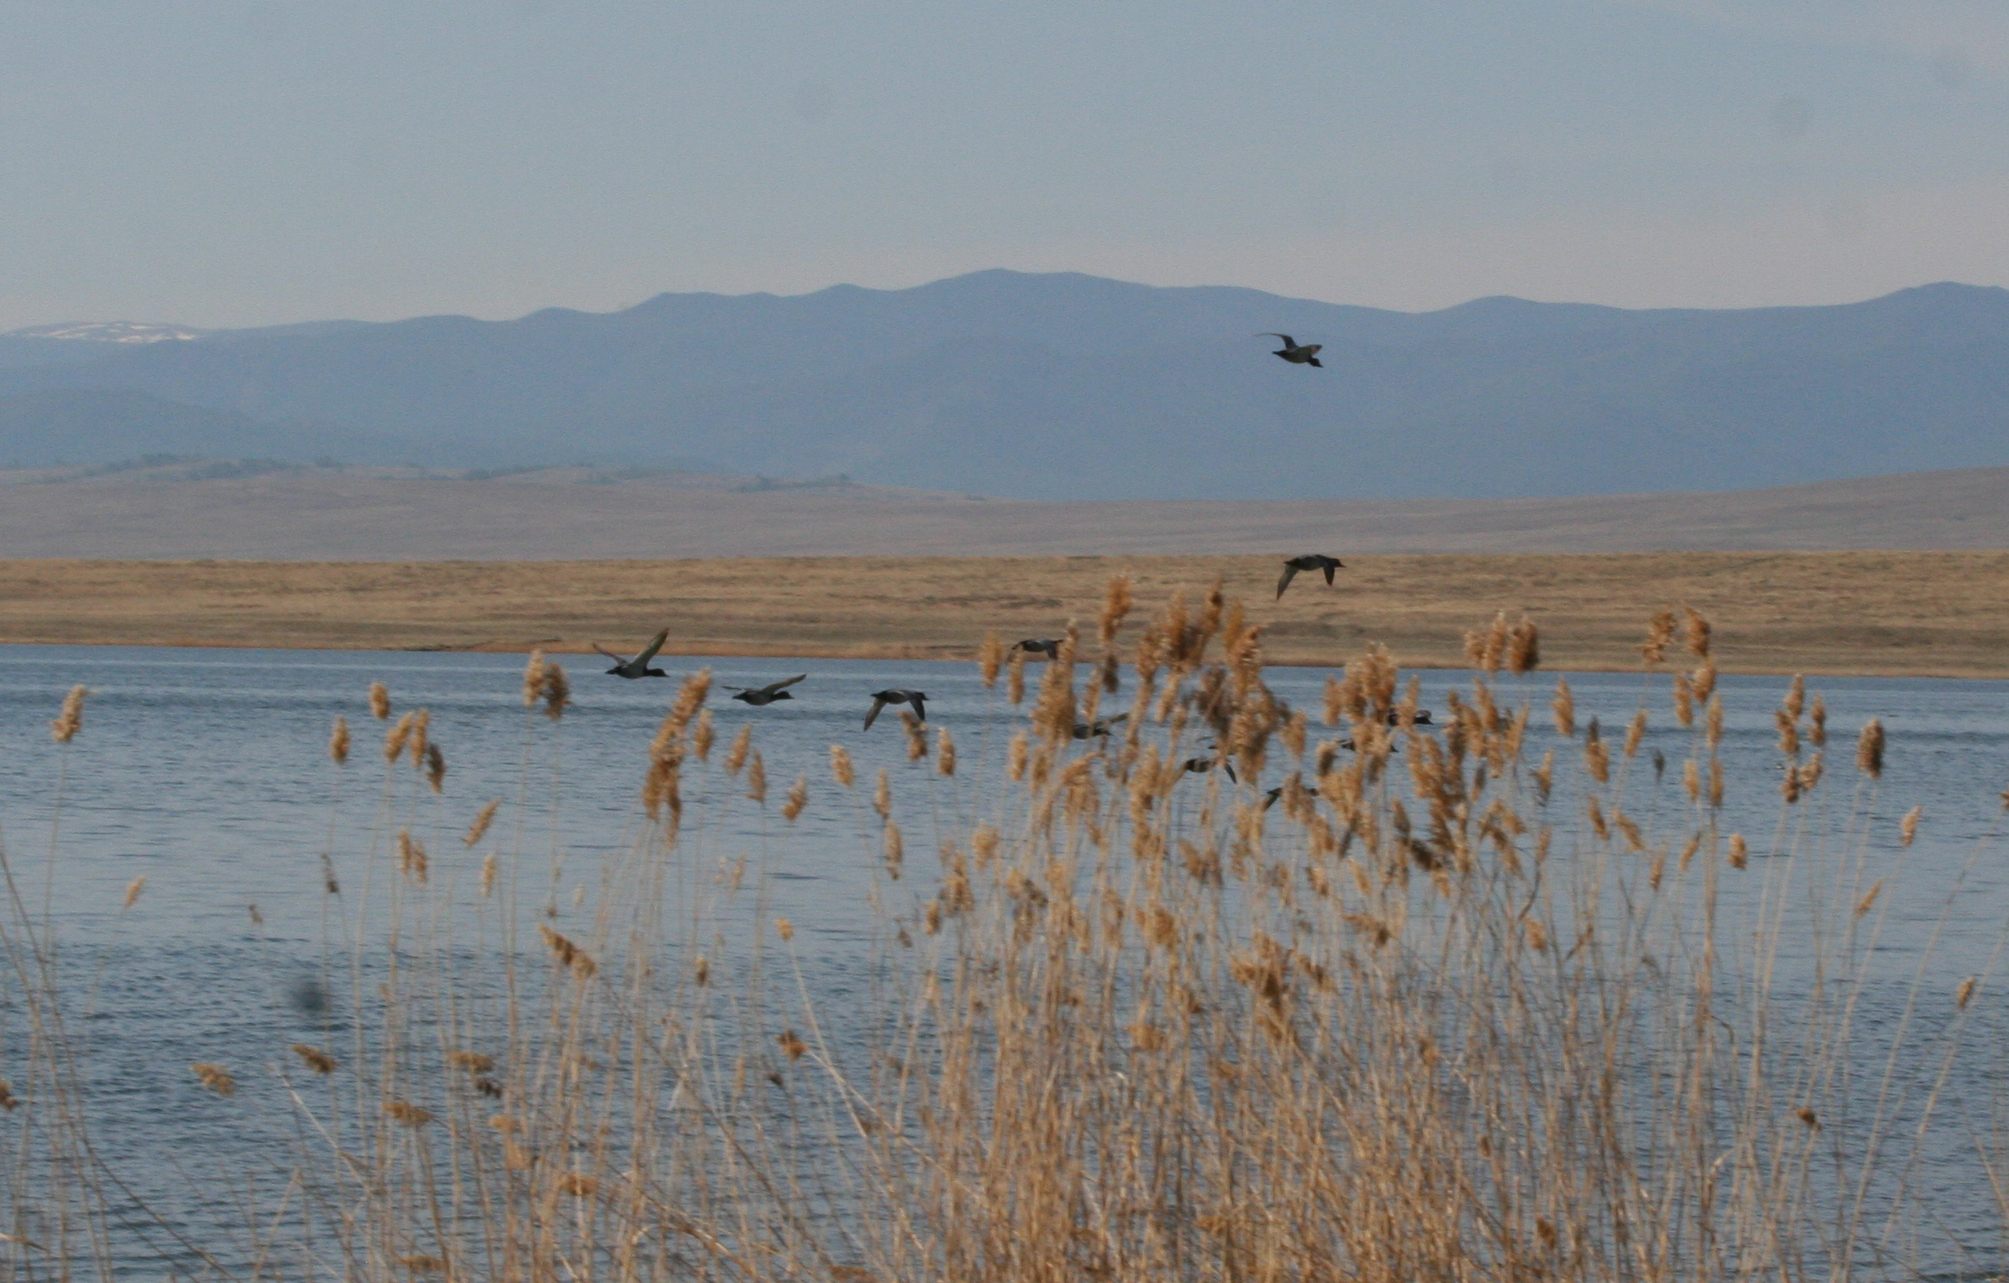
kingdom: Animalia
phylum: Chordata
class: Aves
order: Anseriformes
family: Anatidae
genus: Aythya
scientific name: Aythya ferina
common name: Common pochard
